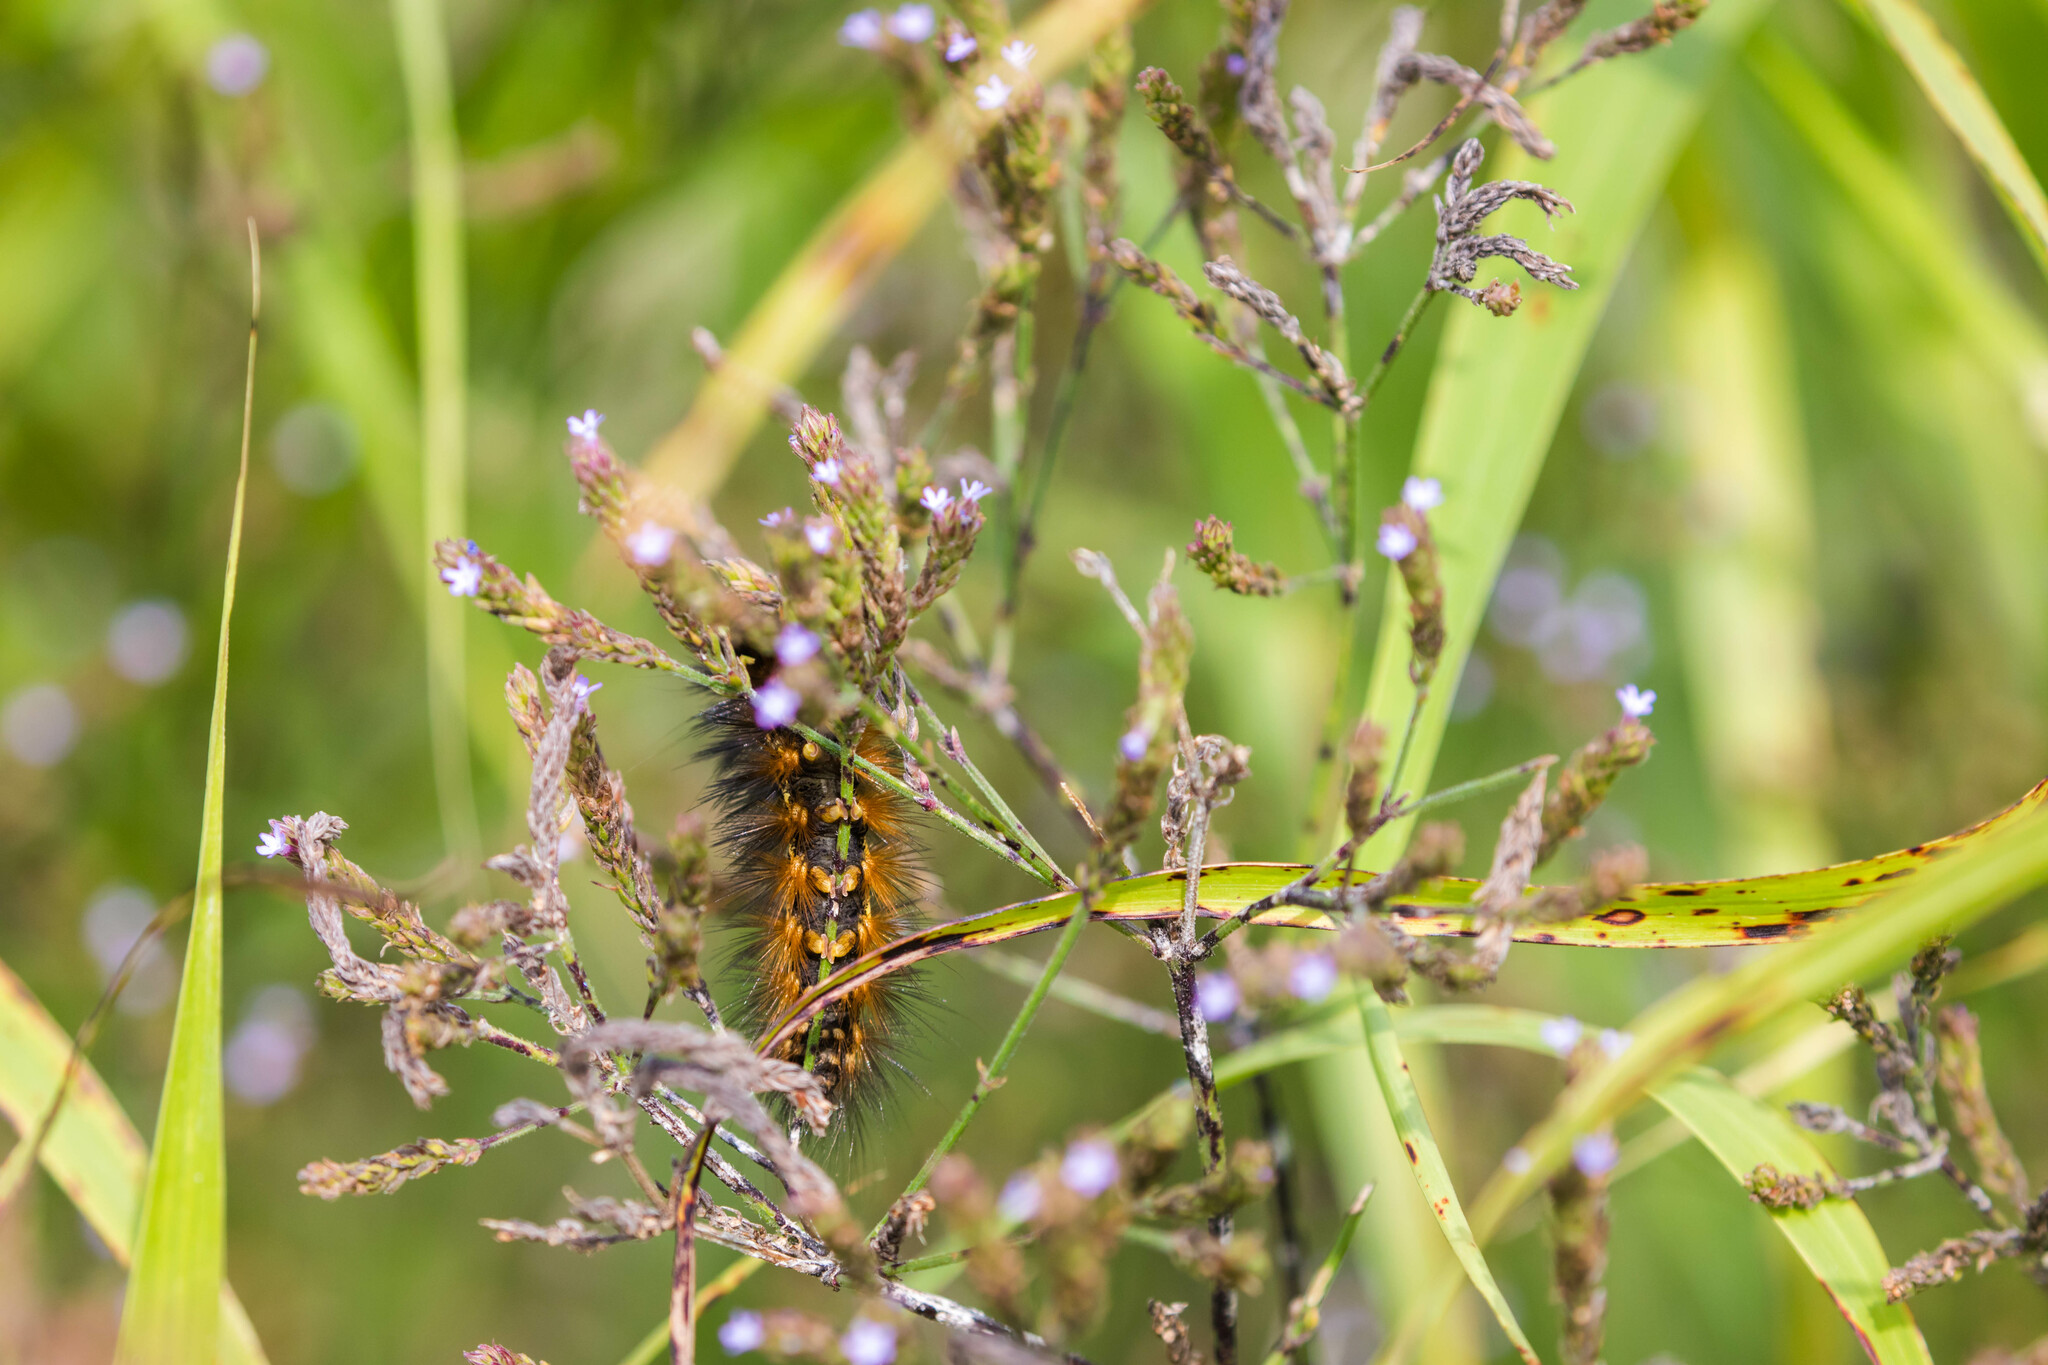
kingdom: Animalia
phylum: Arthropoda
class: Insecta
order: Lepidoptera
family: Erebidae
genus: Estigmene
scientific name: Estigmene acrea
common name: Salt marsh moth
